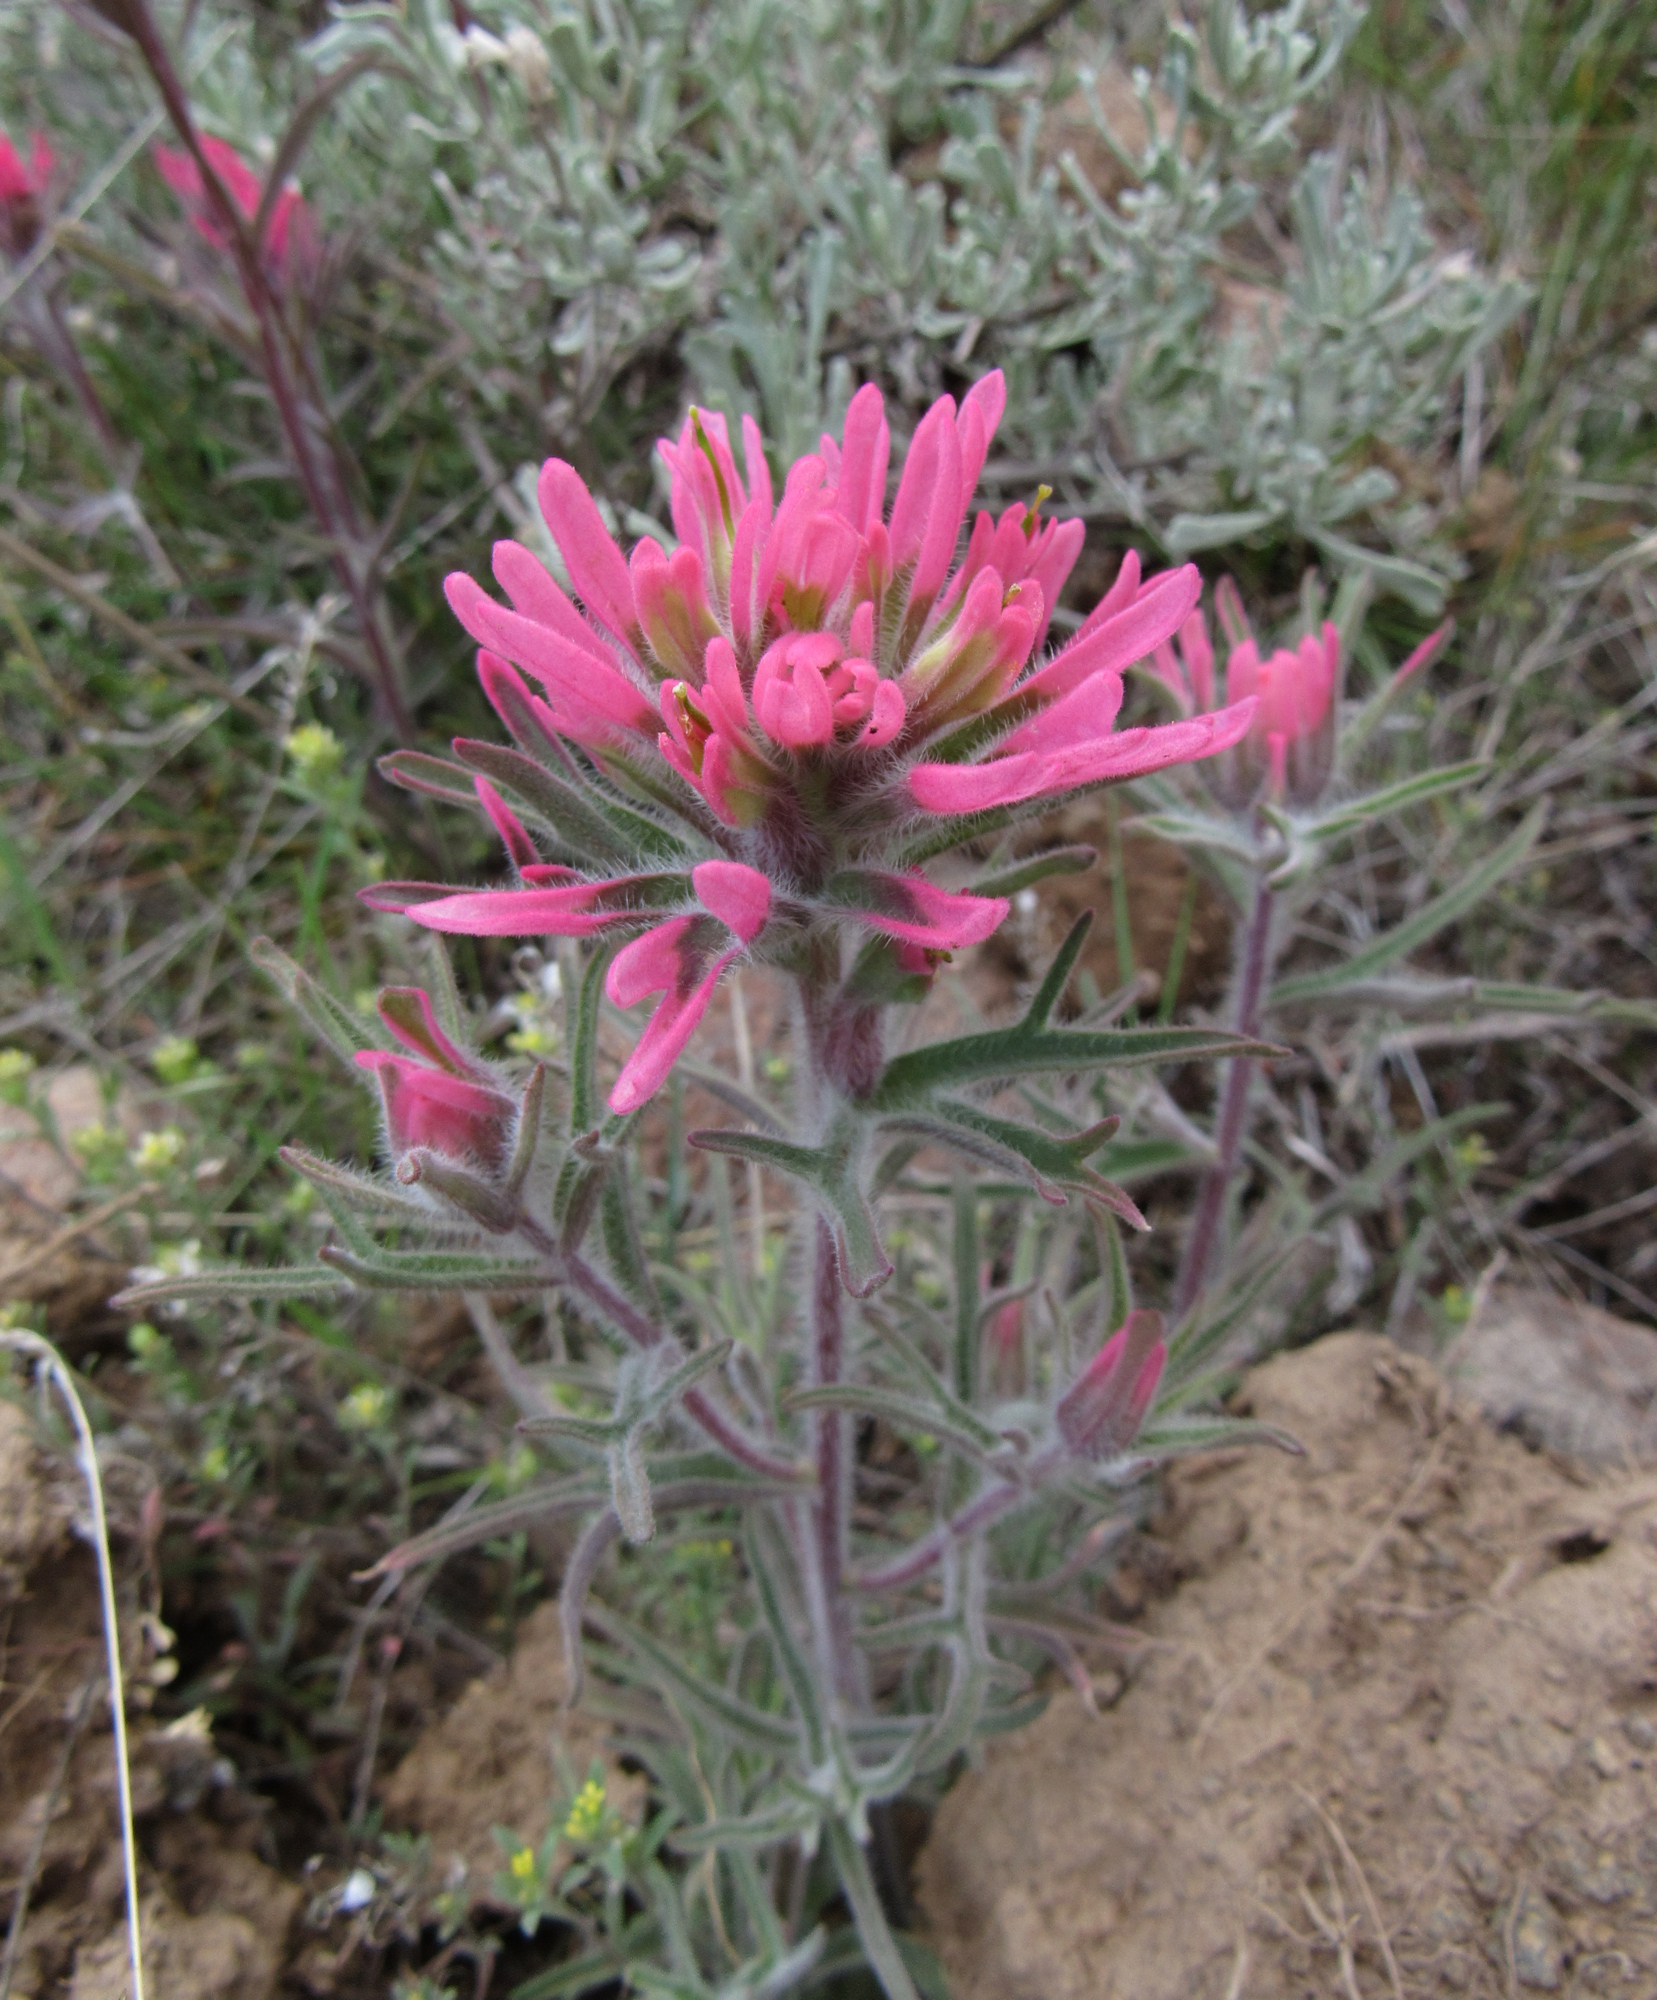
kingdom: Plantae
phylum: Tracheophyta
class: Magnoliopsida
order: Lamiales
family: Orobanchaceae
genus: Castilleja
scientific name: Castilleja angustifolia
